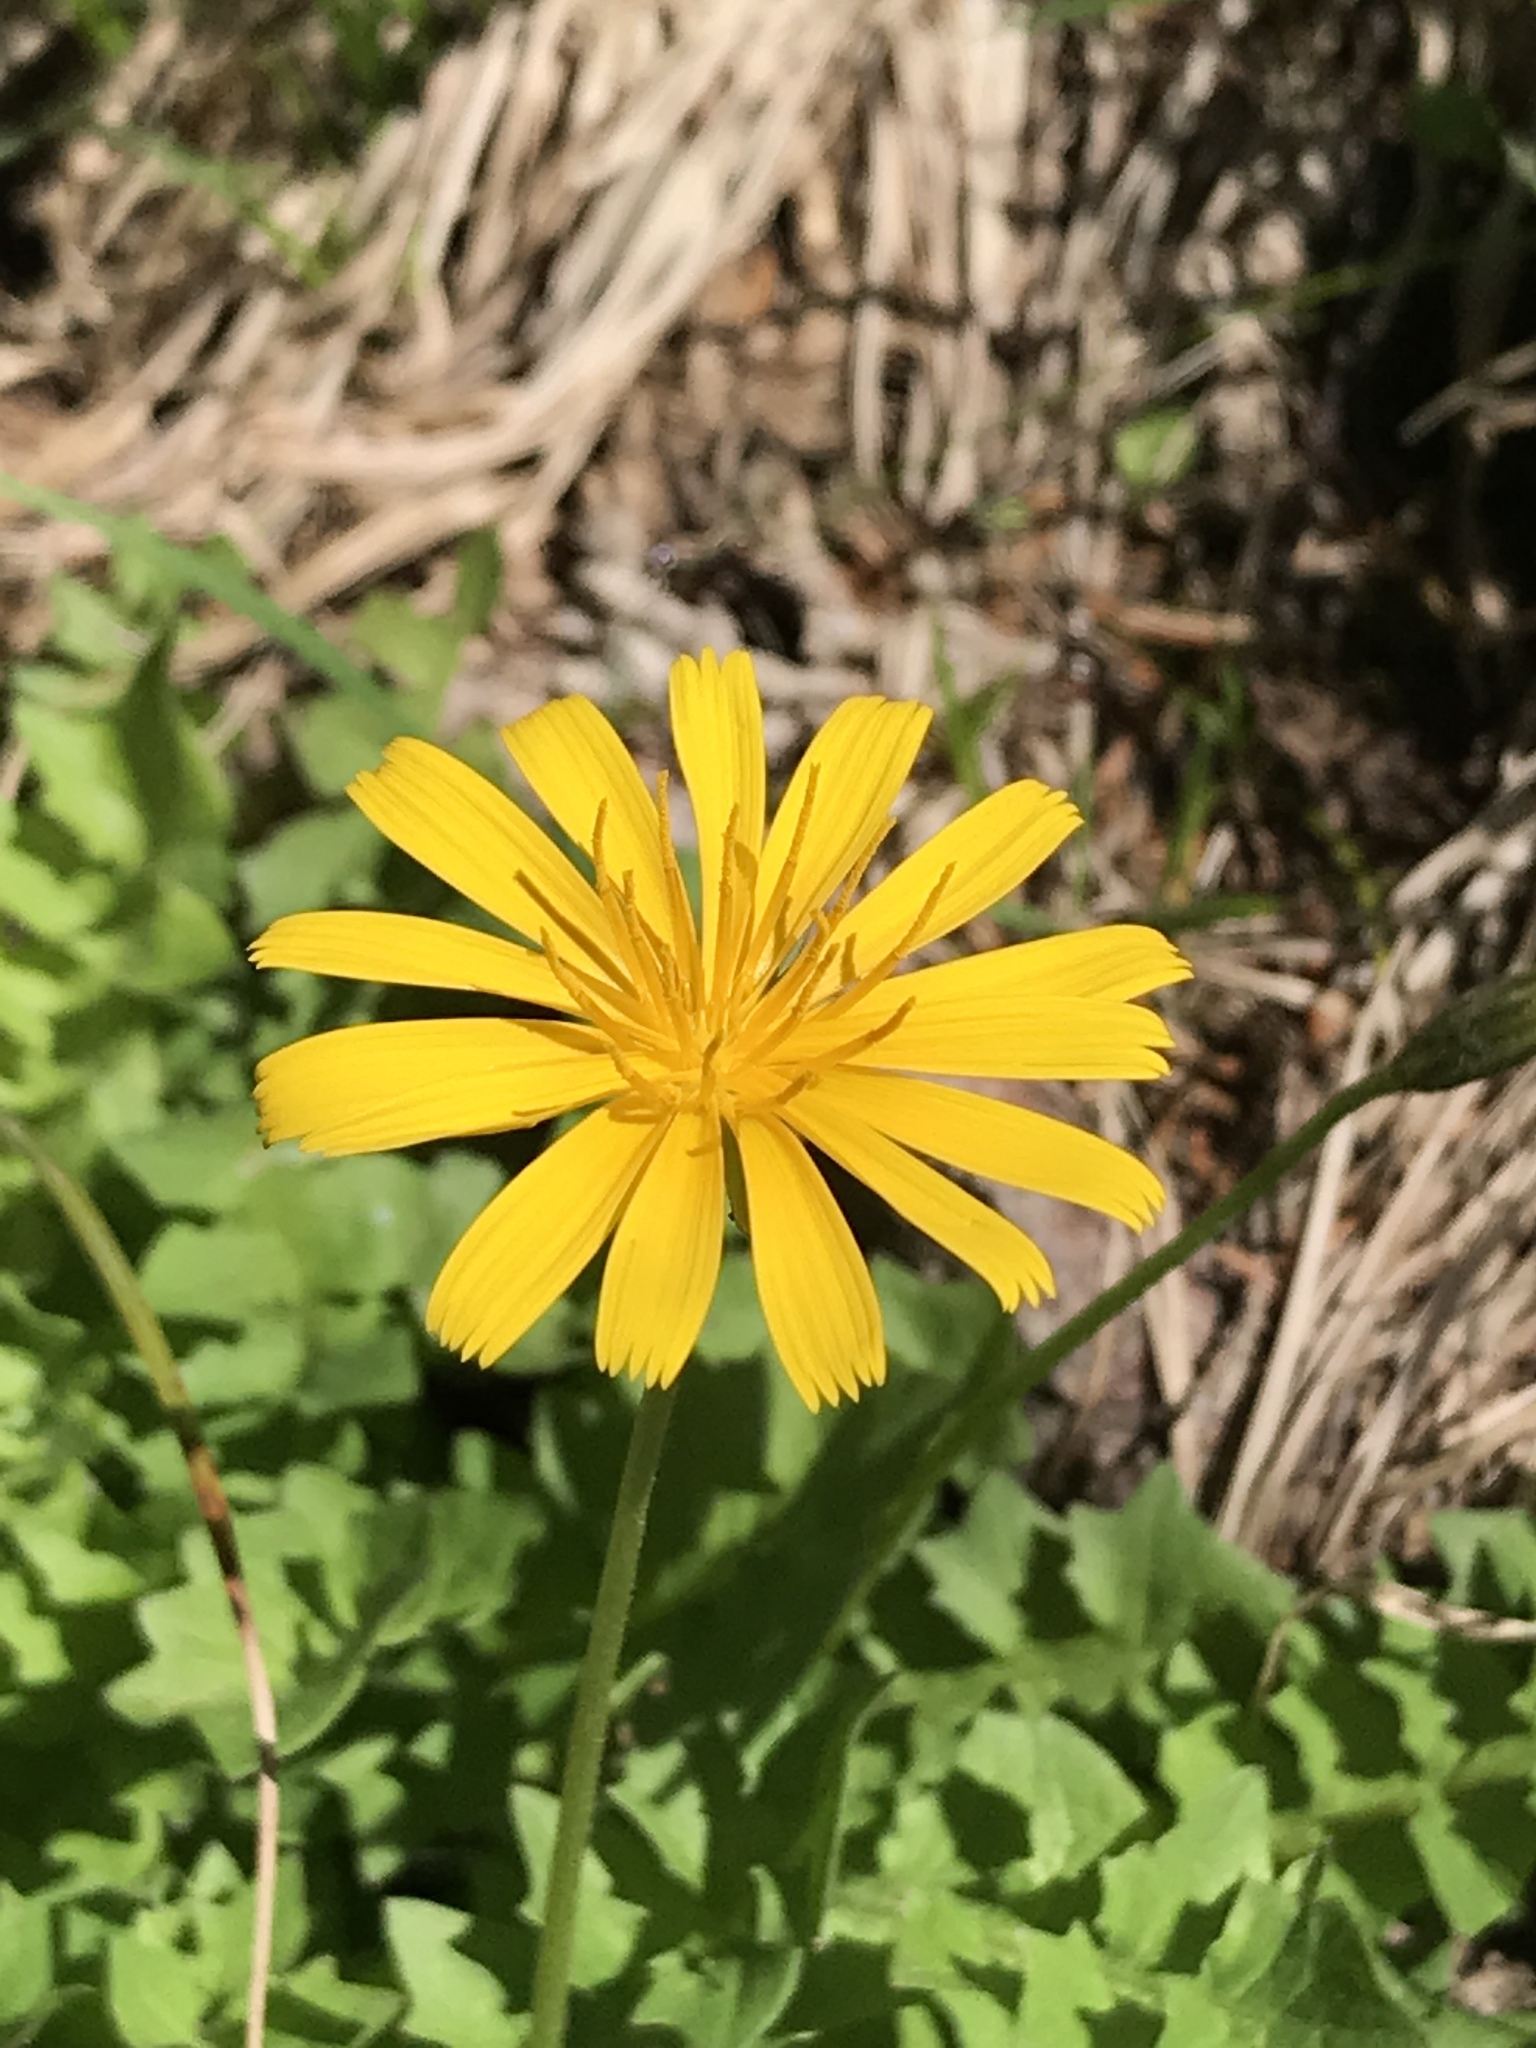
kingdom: Plantae
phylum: Tracheophyta
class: Magnoliopsida
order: Asterales
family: Asteraceae
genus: Aposeris
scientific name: Aposeris foetida
